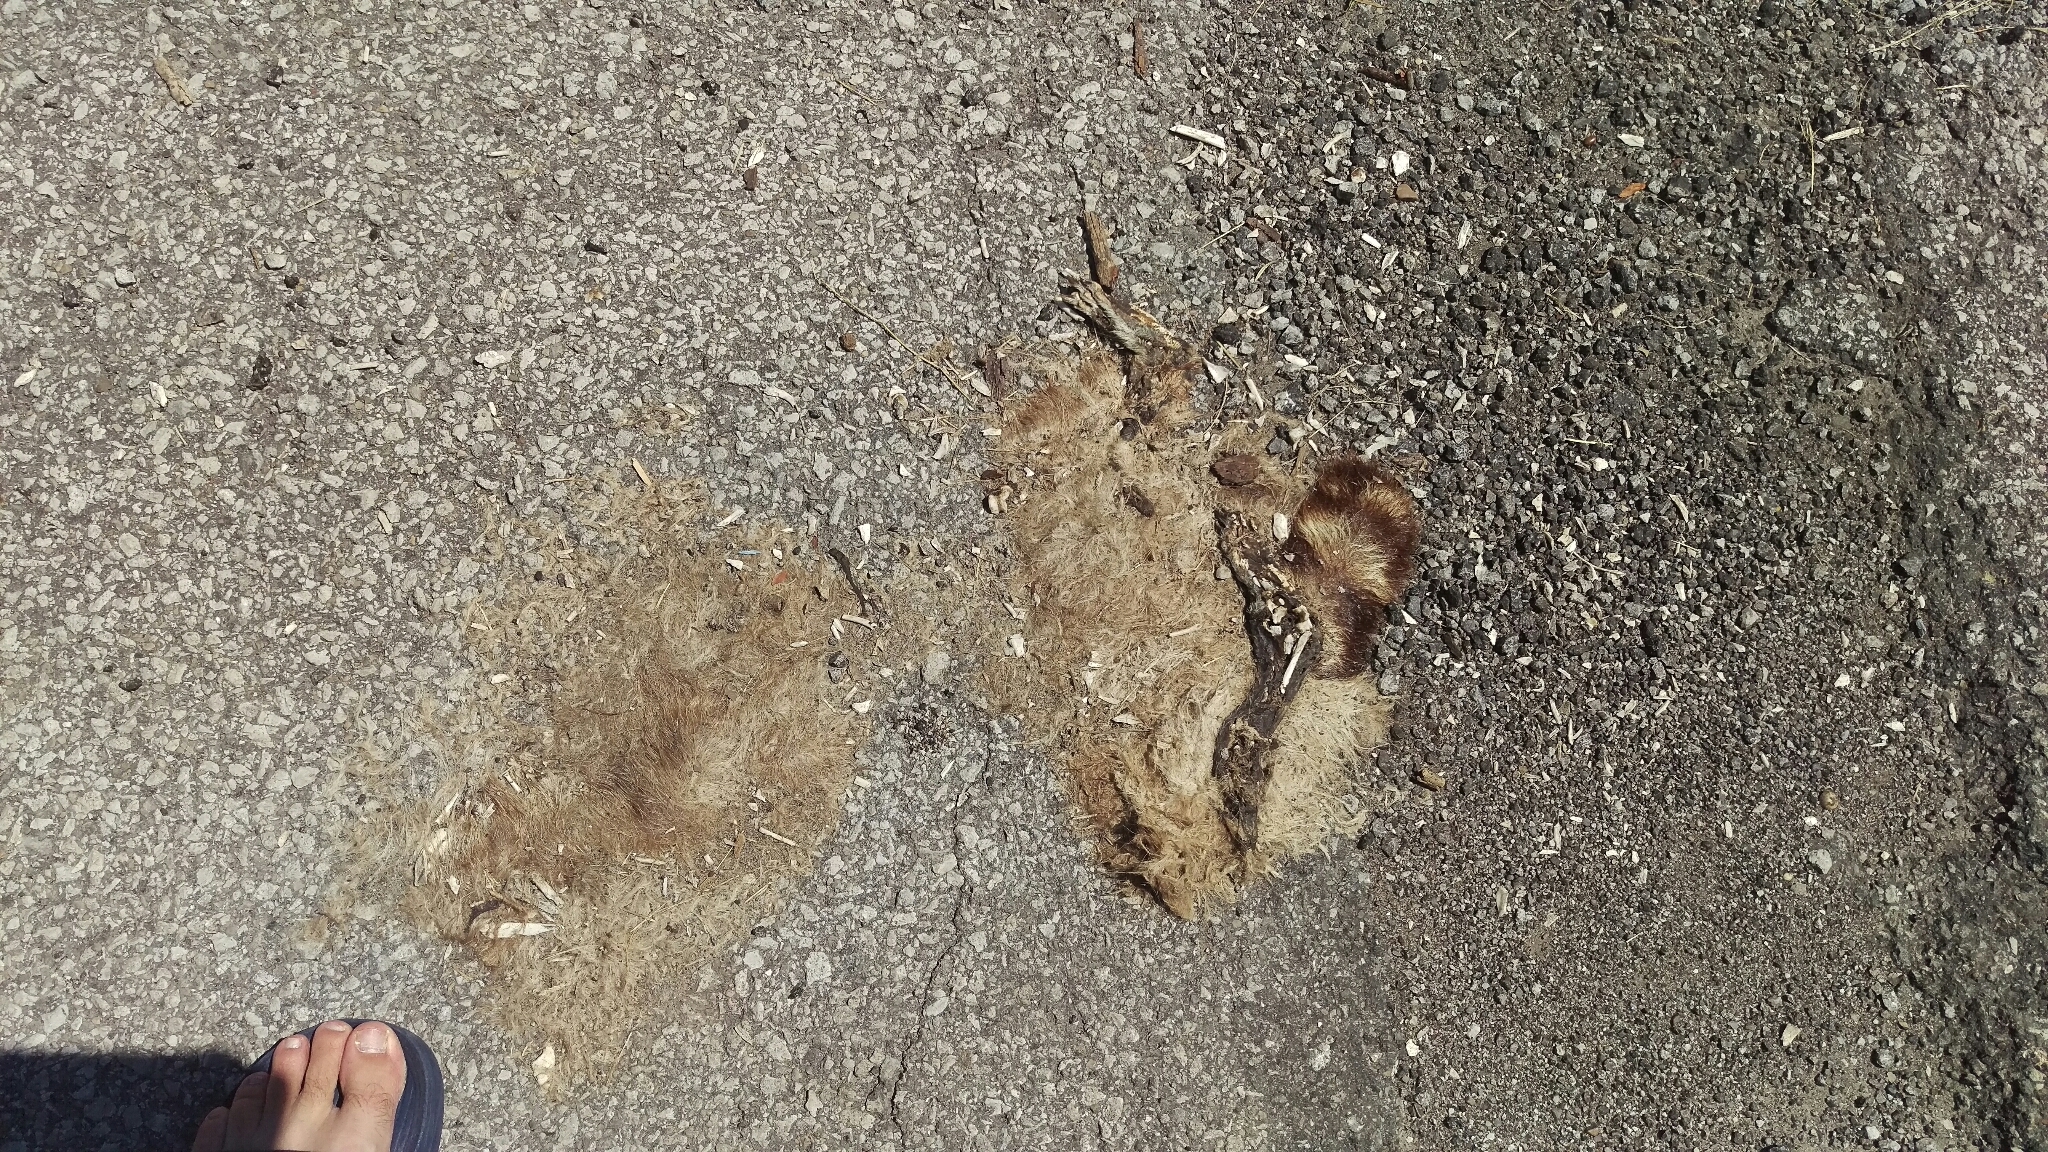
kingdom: Animalia
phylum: Chordata
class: Mammalia
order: Carnivora
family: Procyonidae
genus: Procyon
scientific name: Procyon lotor
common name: Raccoon
